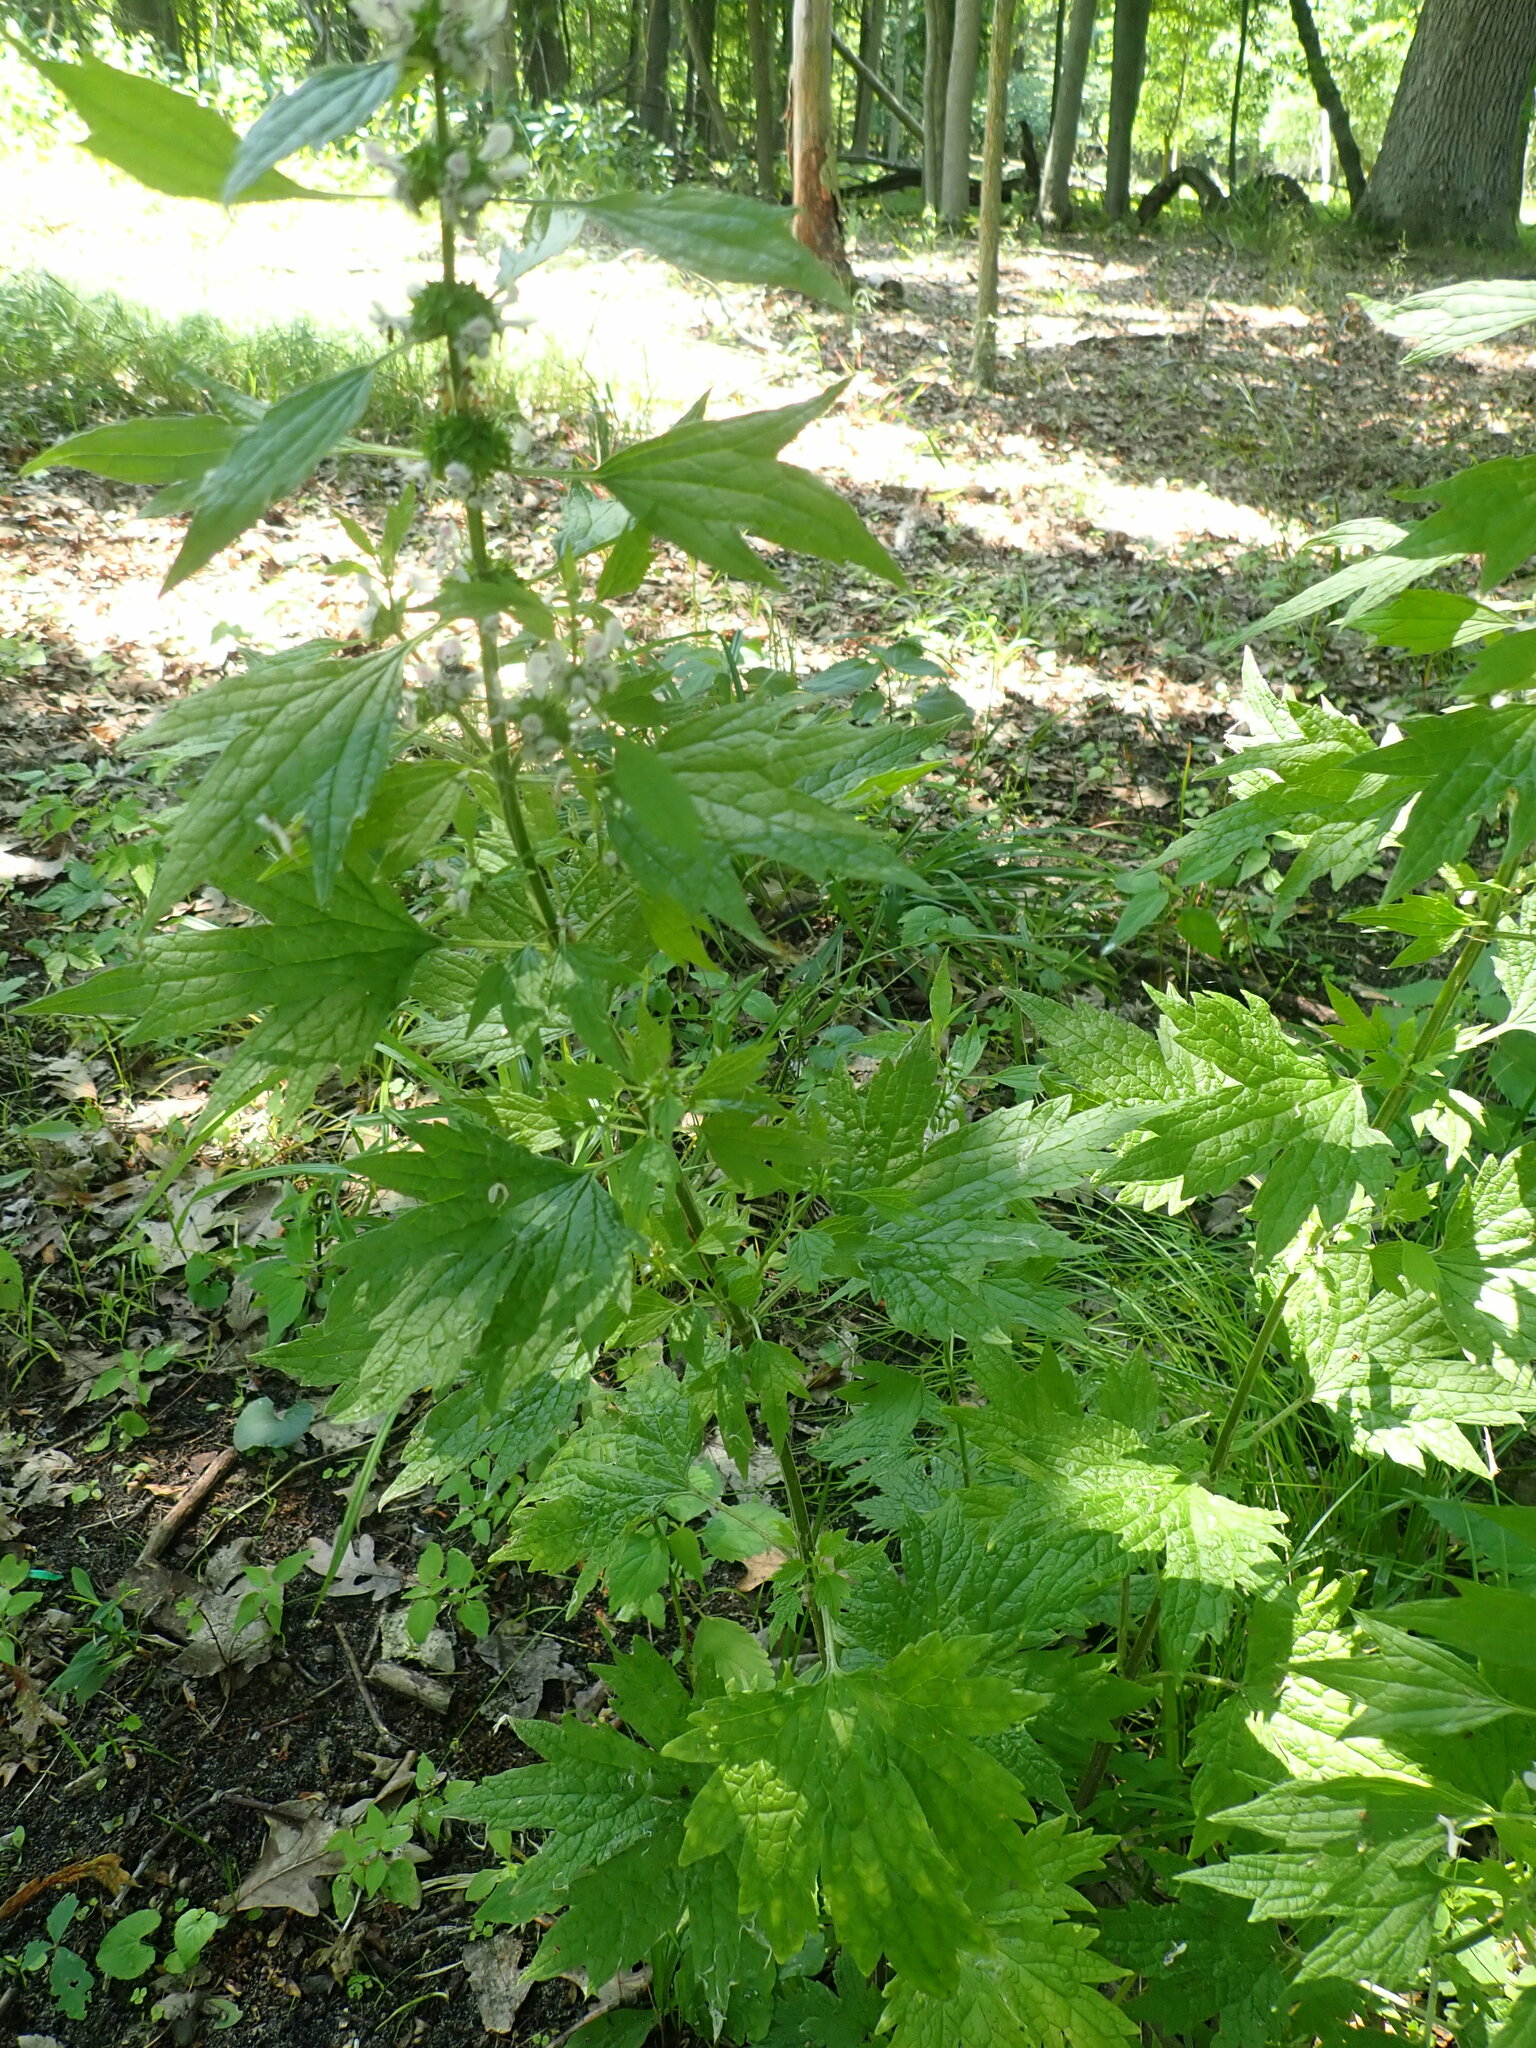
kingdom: Plantae
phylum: Tracheophyta
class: Magnoliopsida
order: Lamiales
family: Lamiaceae
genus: Leonurus
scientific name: Leonurus cardiaca
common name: Motherwort
